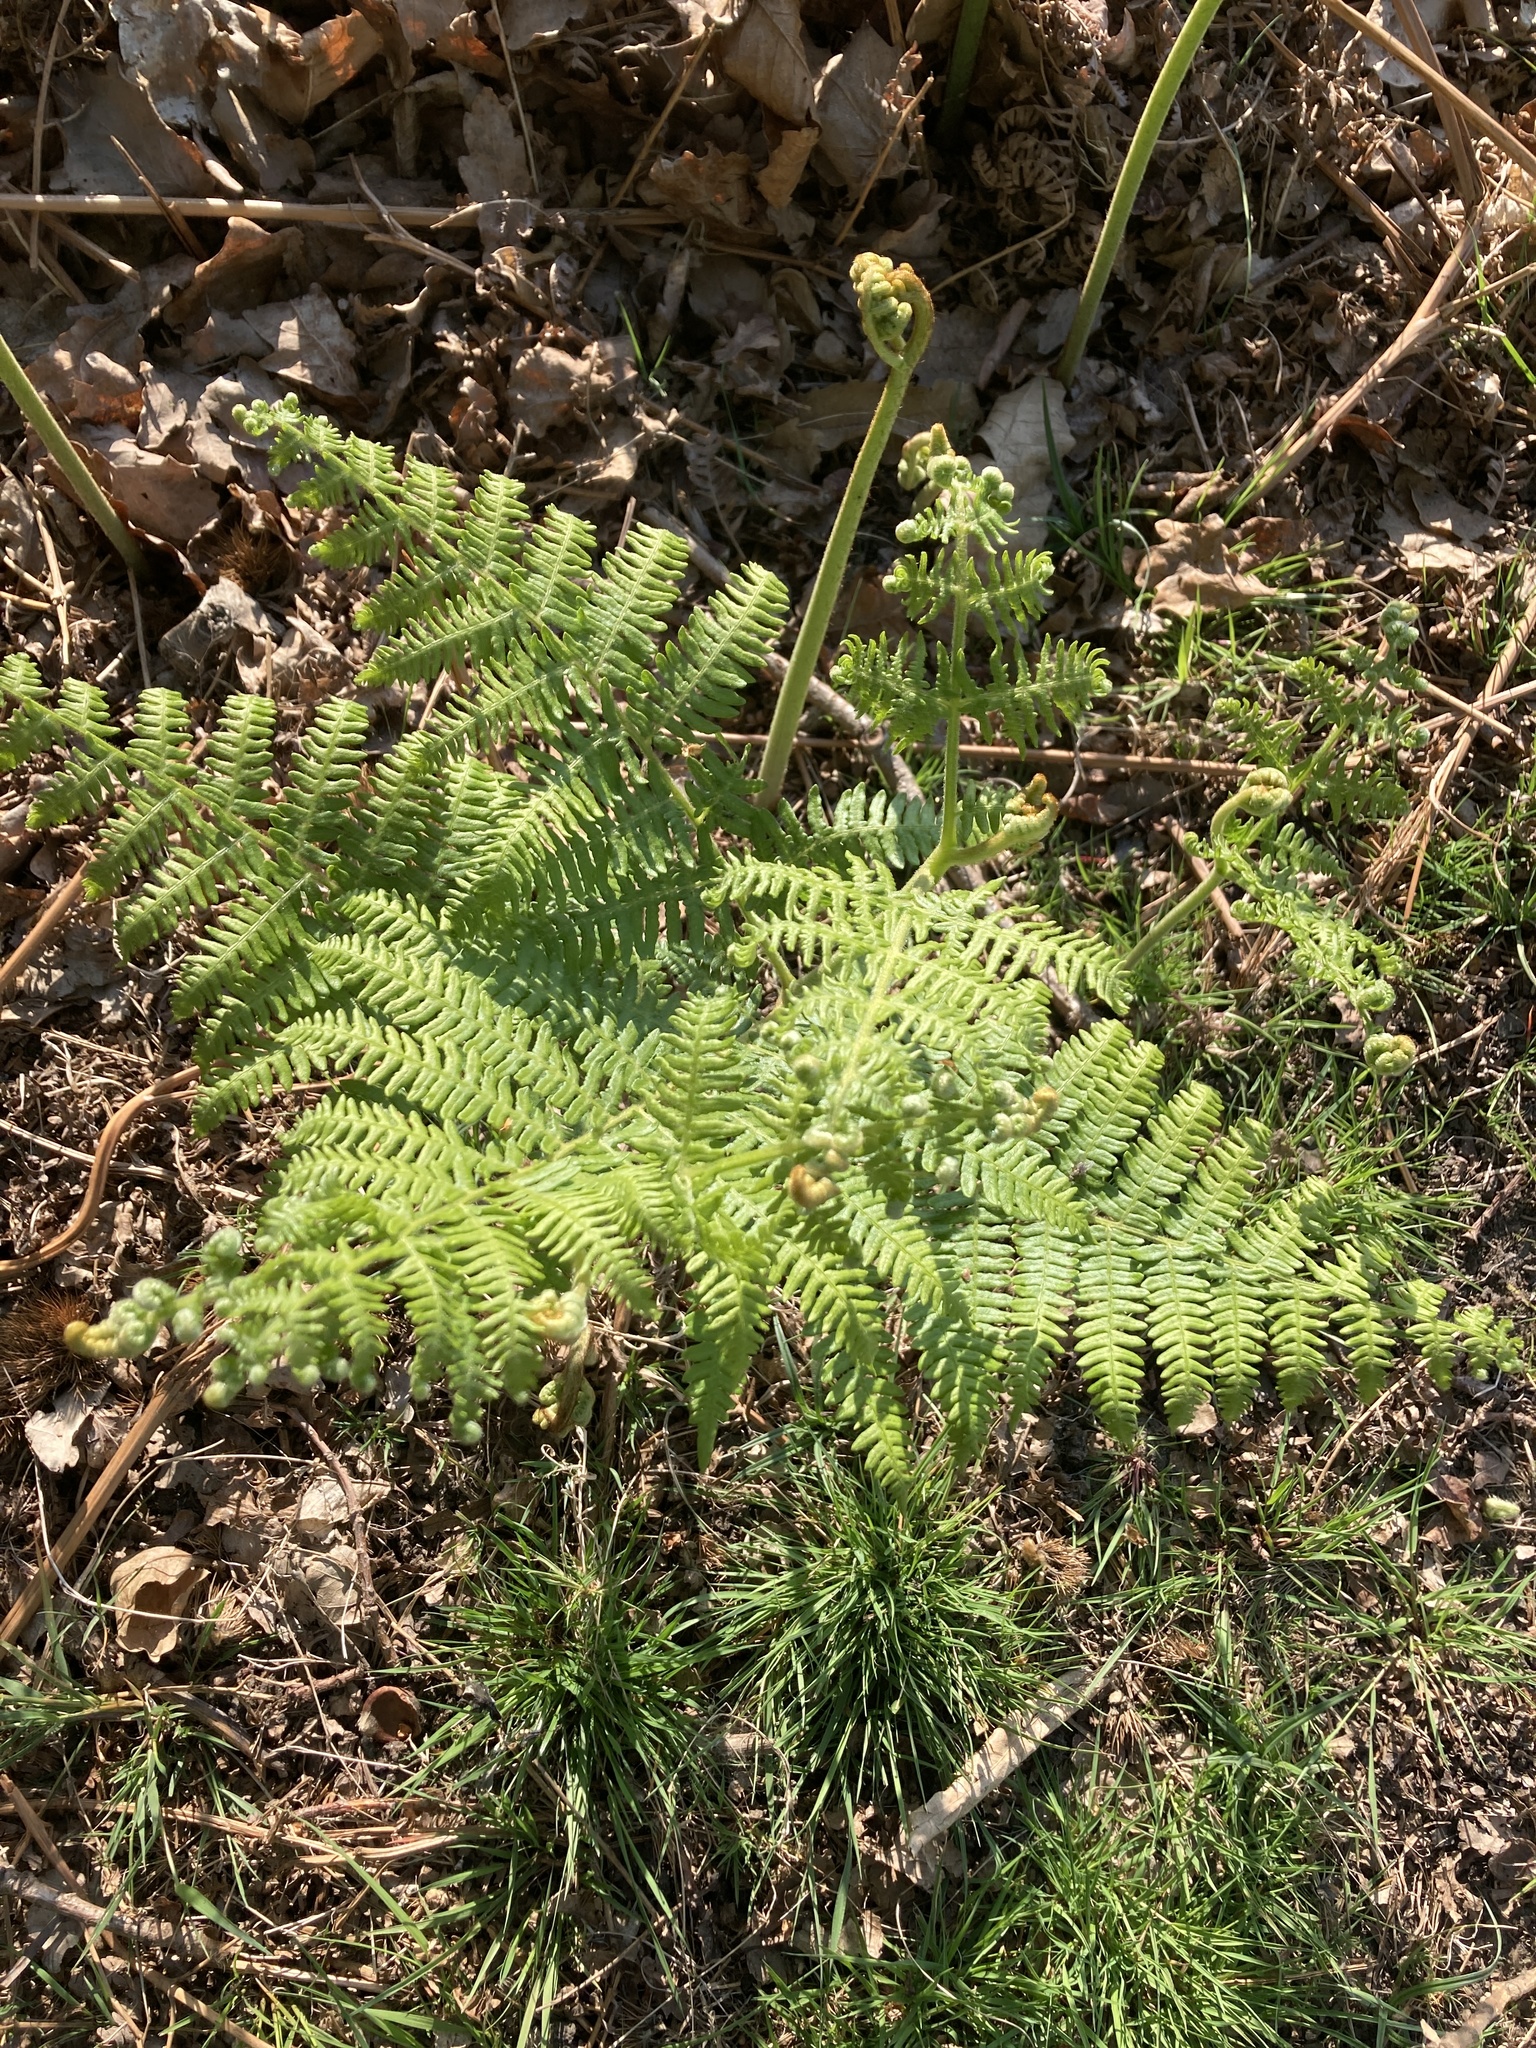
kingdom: Plantae
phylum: Tracheophyta
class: Polypodiopsida
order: Polypodiales
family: Dennstaedtiaceae
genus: Pteridium
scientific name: Pteridium aquilinum
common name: Bracken
